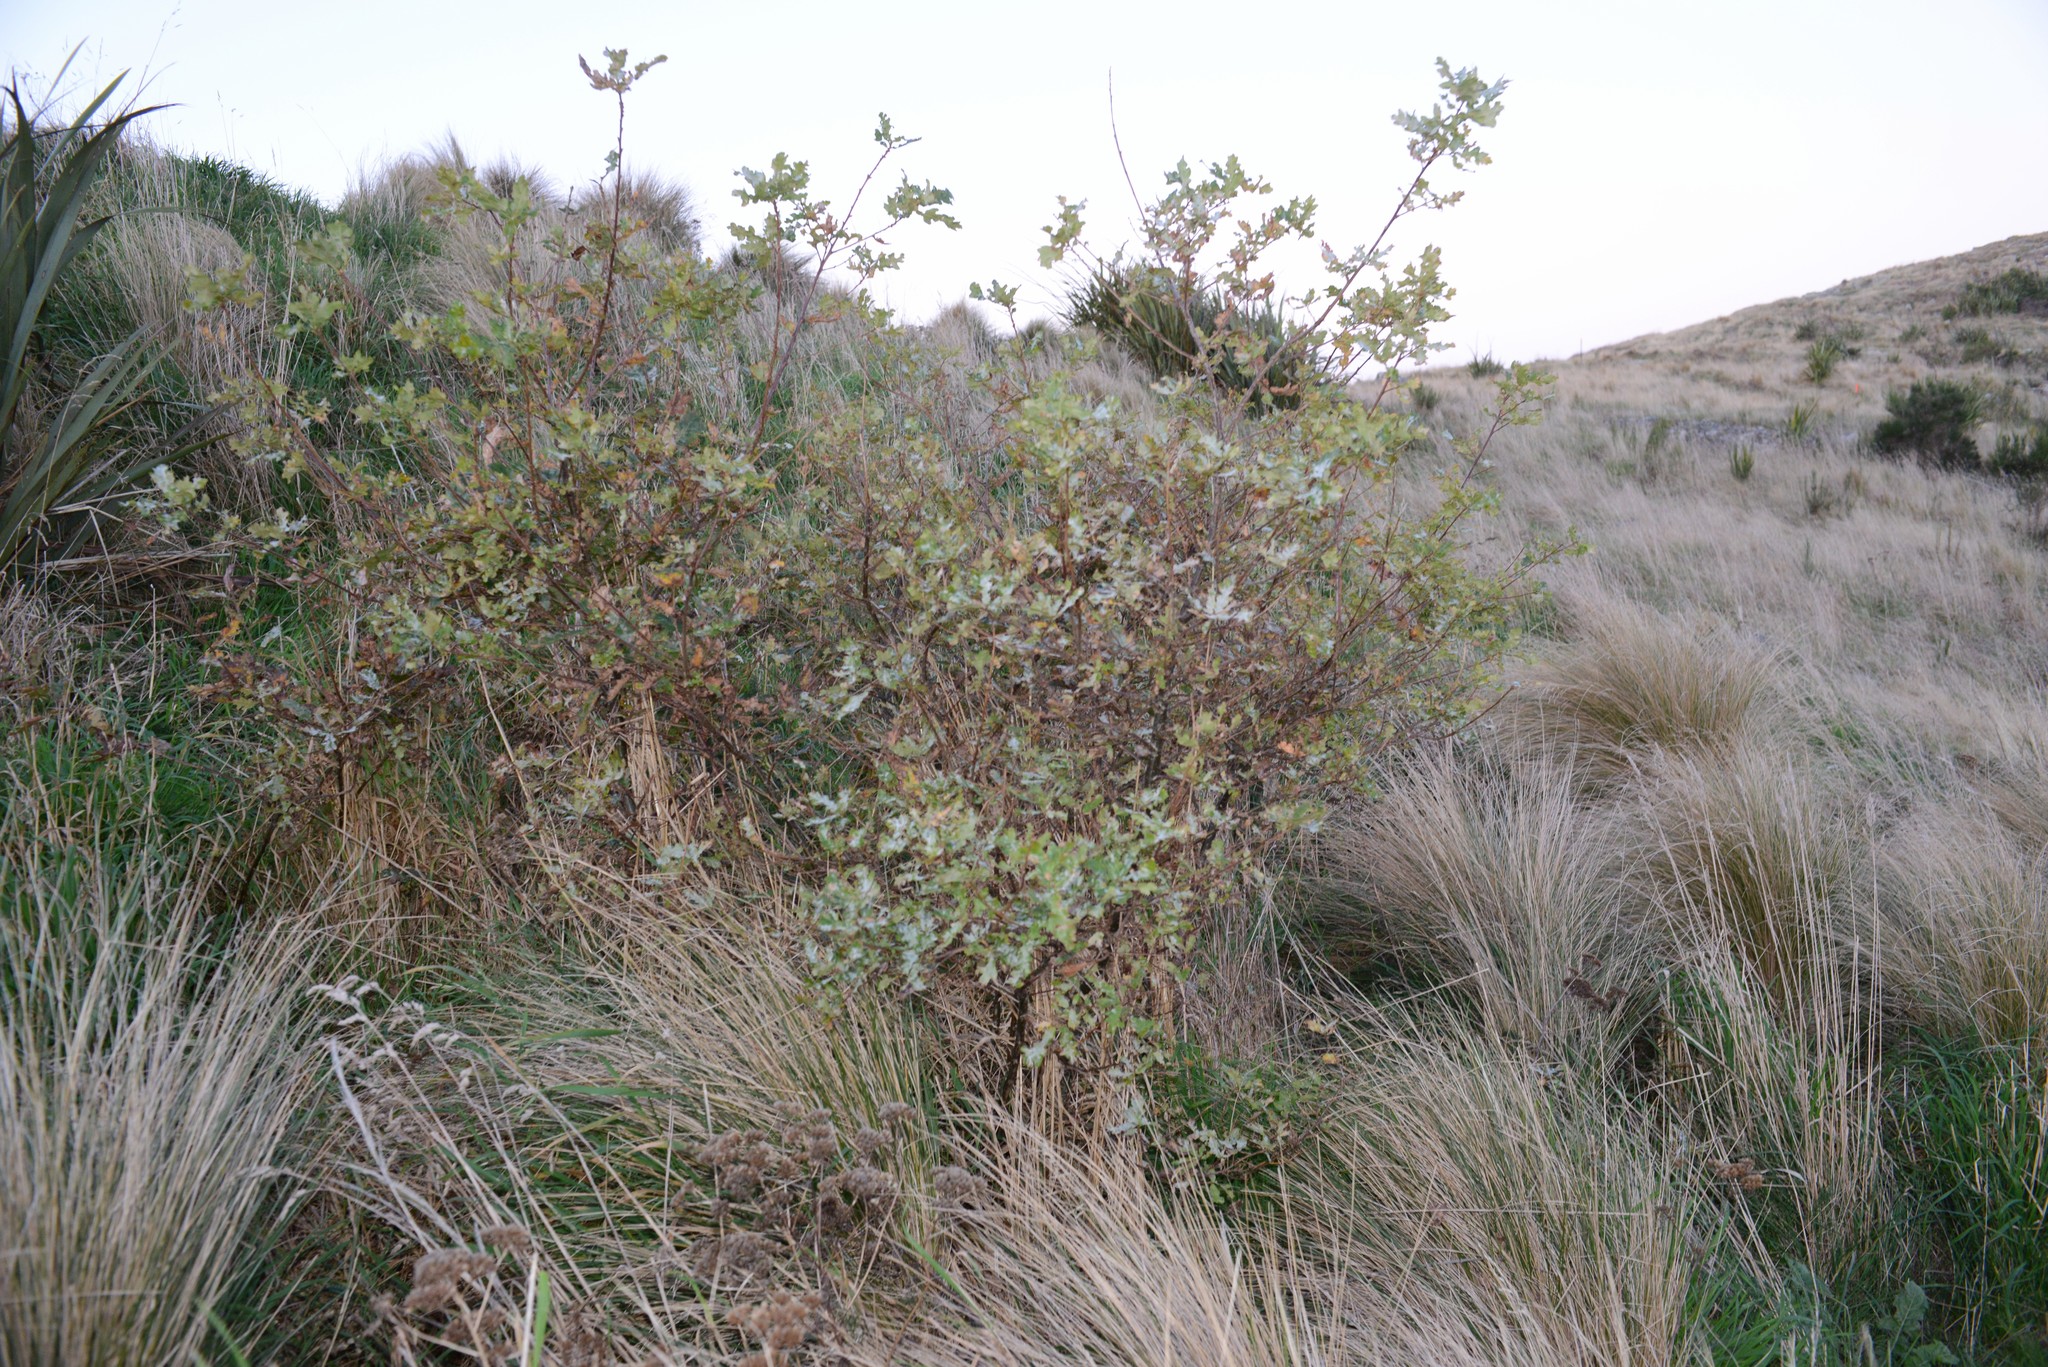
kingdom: Plantae
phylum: Tracheophyta
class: Magnoliopsida
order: Fagales
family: Fagaceae
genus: Quercus
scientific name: Quercus robur
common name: Pedunculate oak
